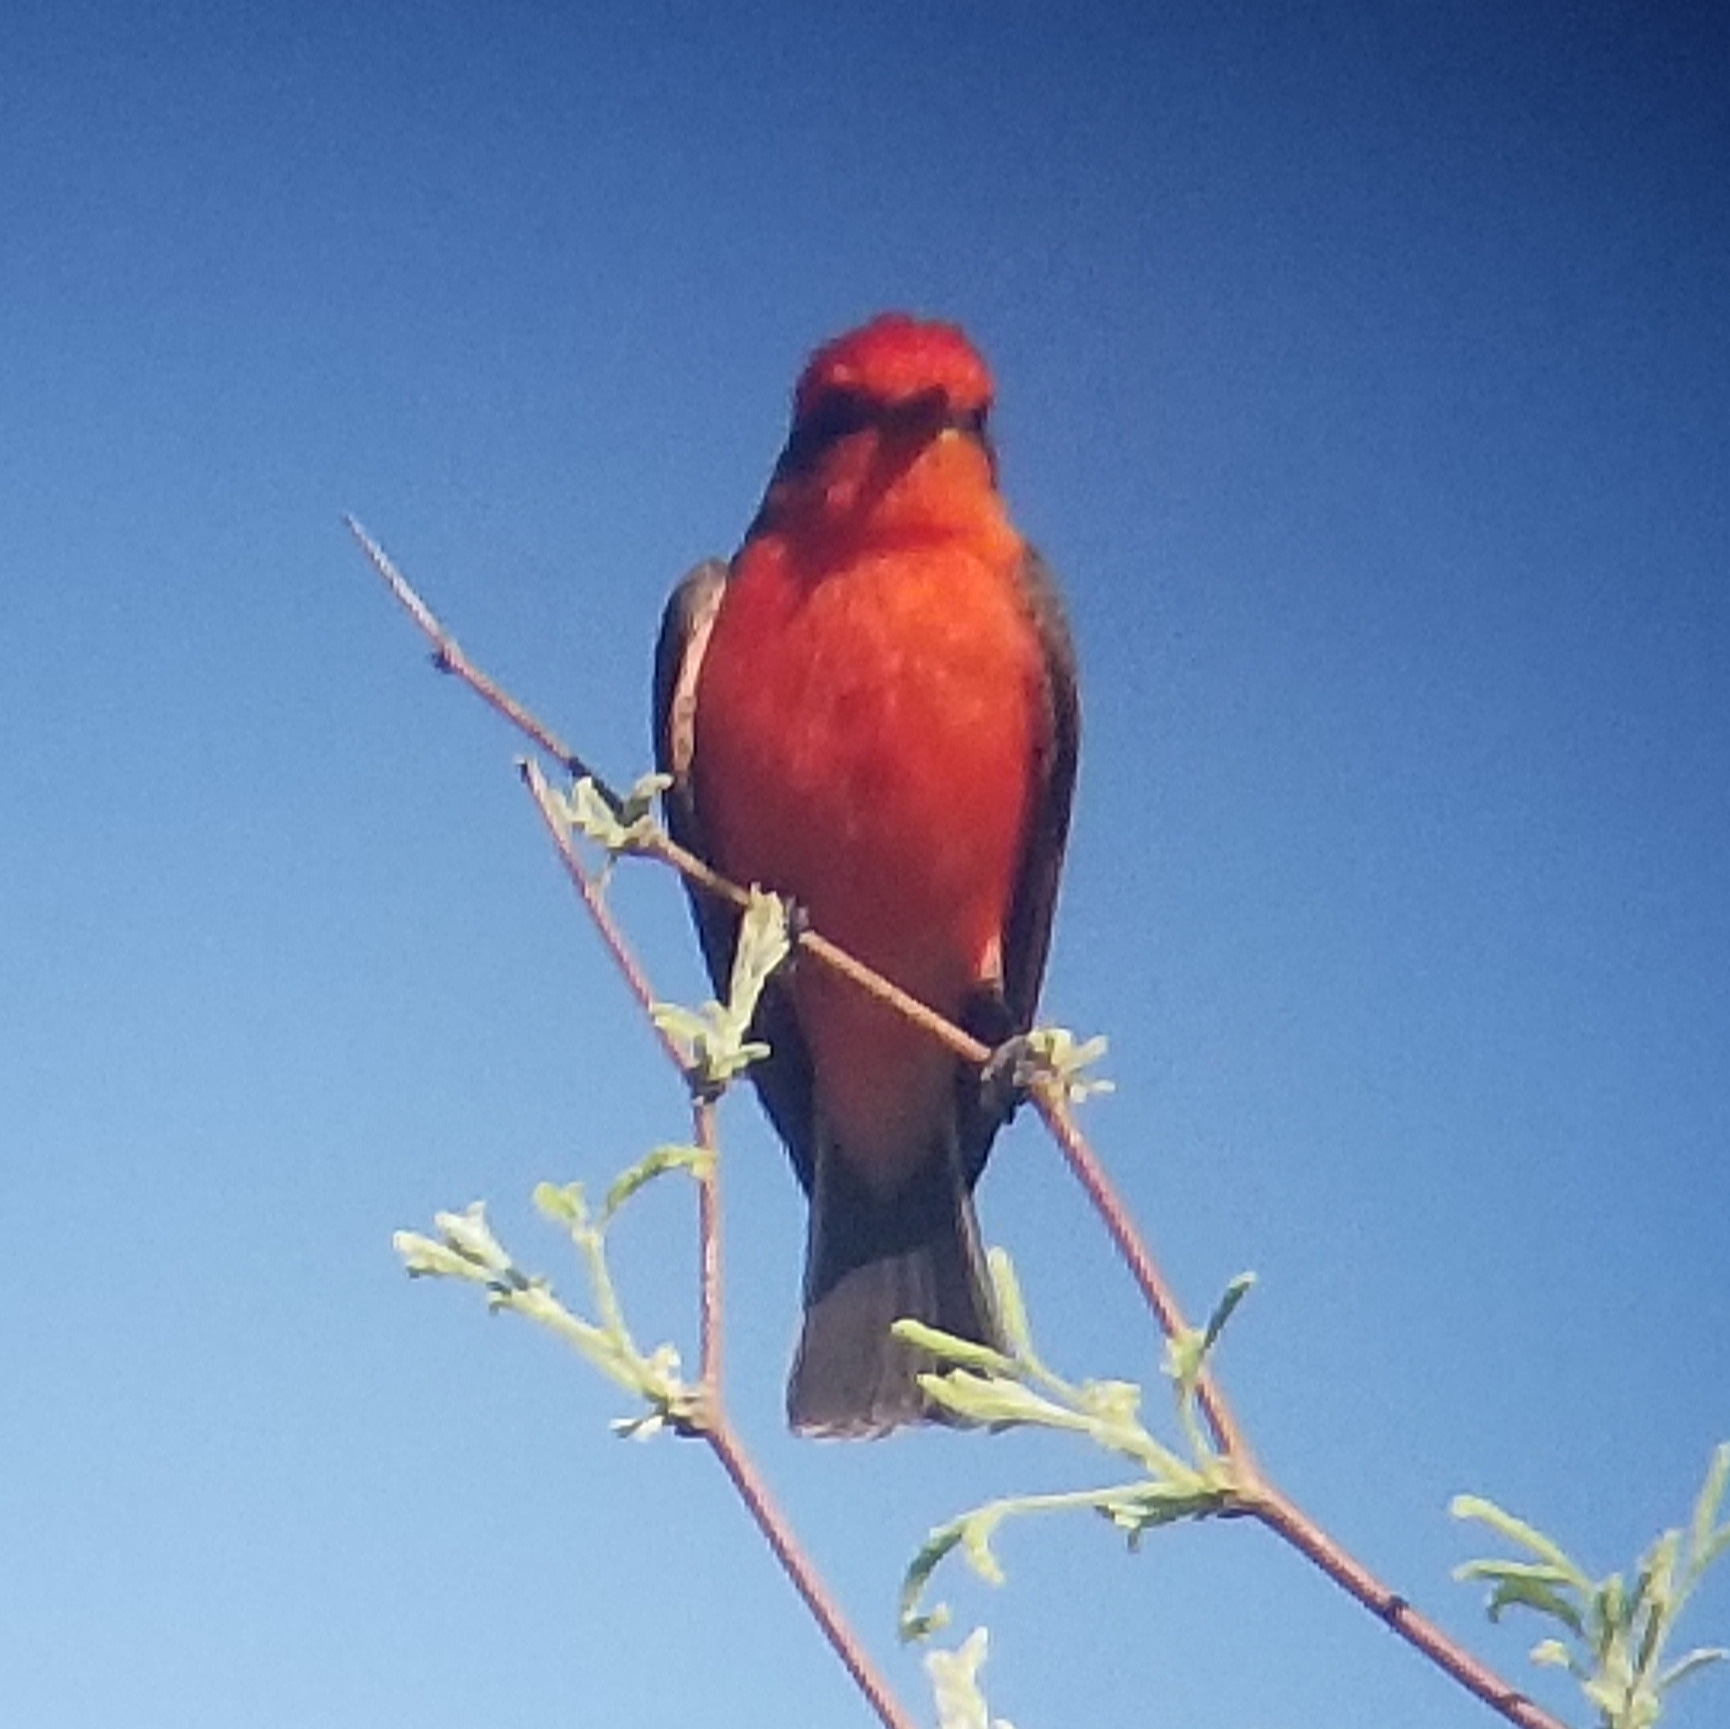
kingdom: Animalia
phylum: Chordata
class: Aves
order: Passeriformes
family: Tyrannidae
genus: Pyrocephalus
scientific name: Pyrocephalus rubinus
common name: Vermilion flycatcher
